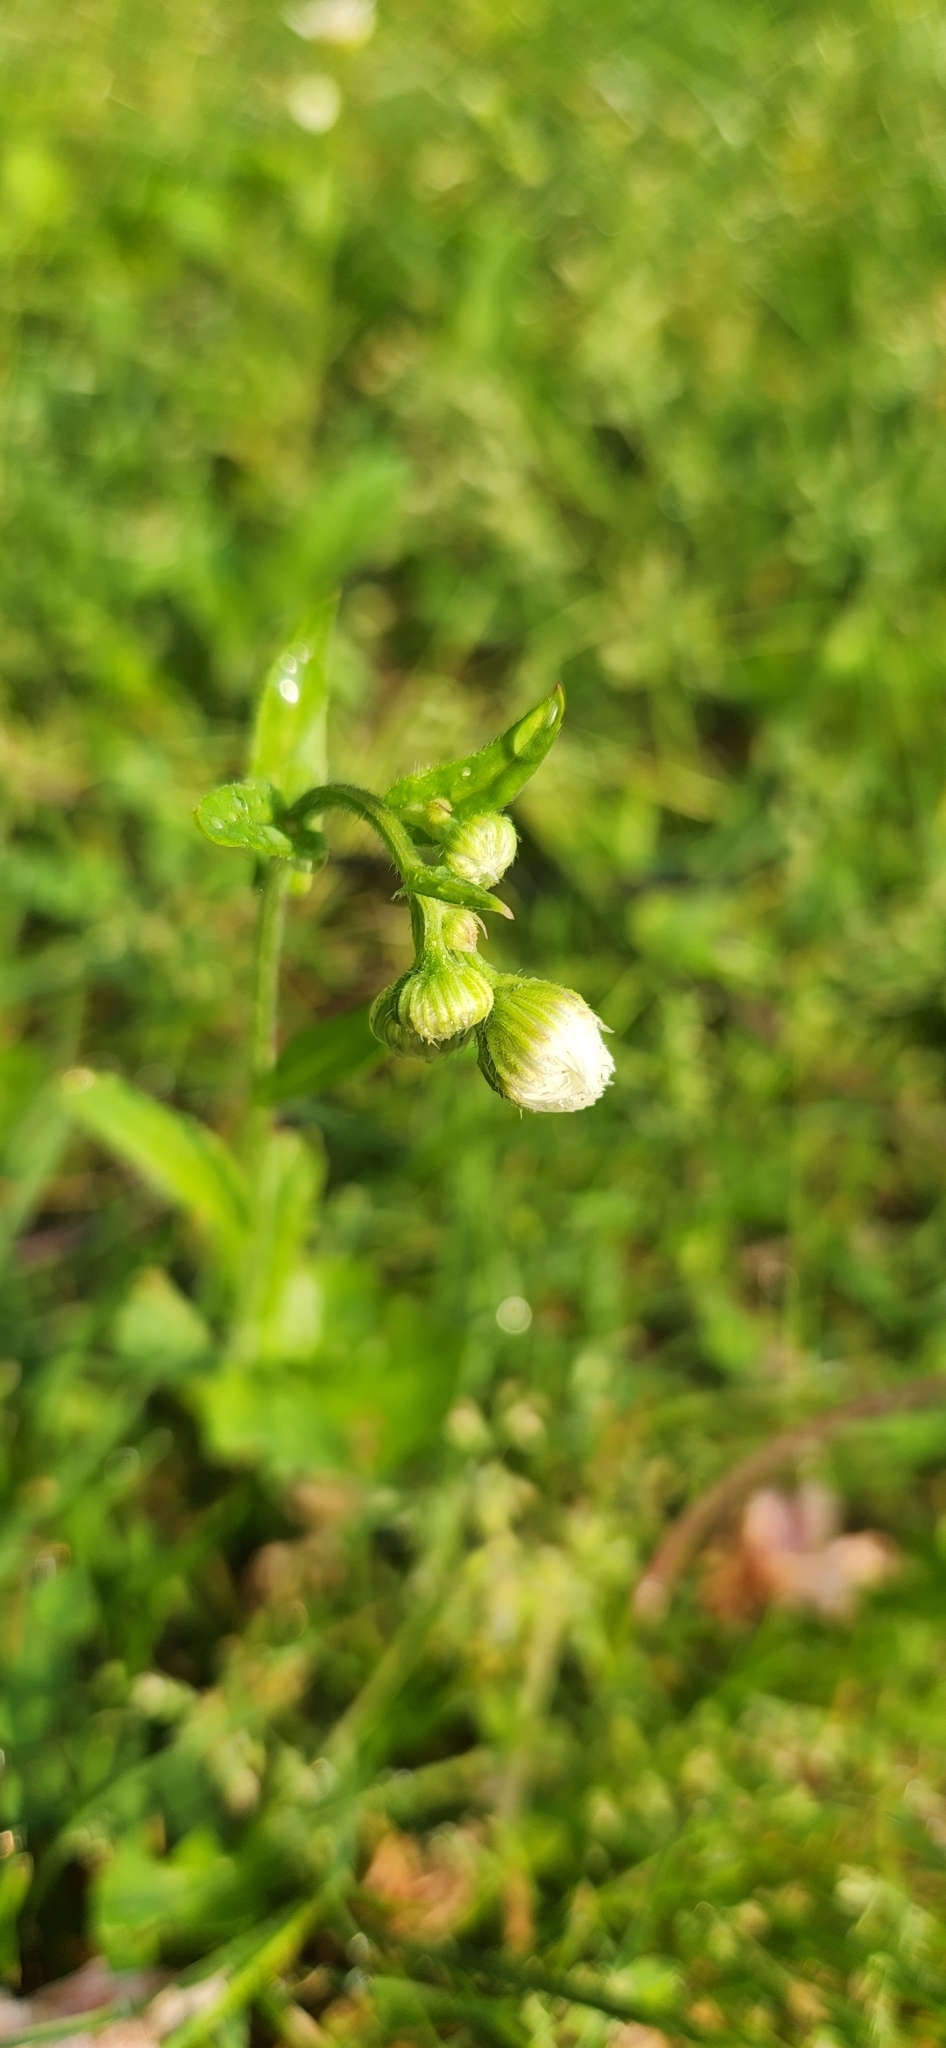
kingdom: Plantae
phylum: Tracheophyta
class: Magnoliopsida
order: Asterales
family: Asteraceae
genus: Erigeron
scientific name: Erigeron philadelphicus
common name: Robin's-plantain
